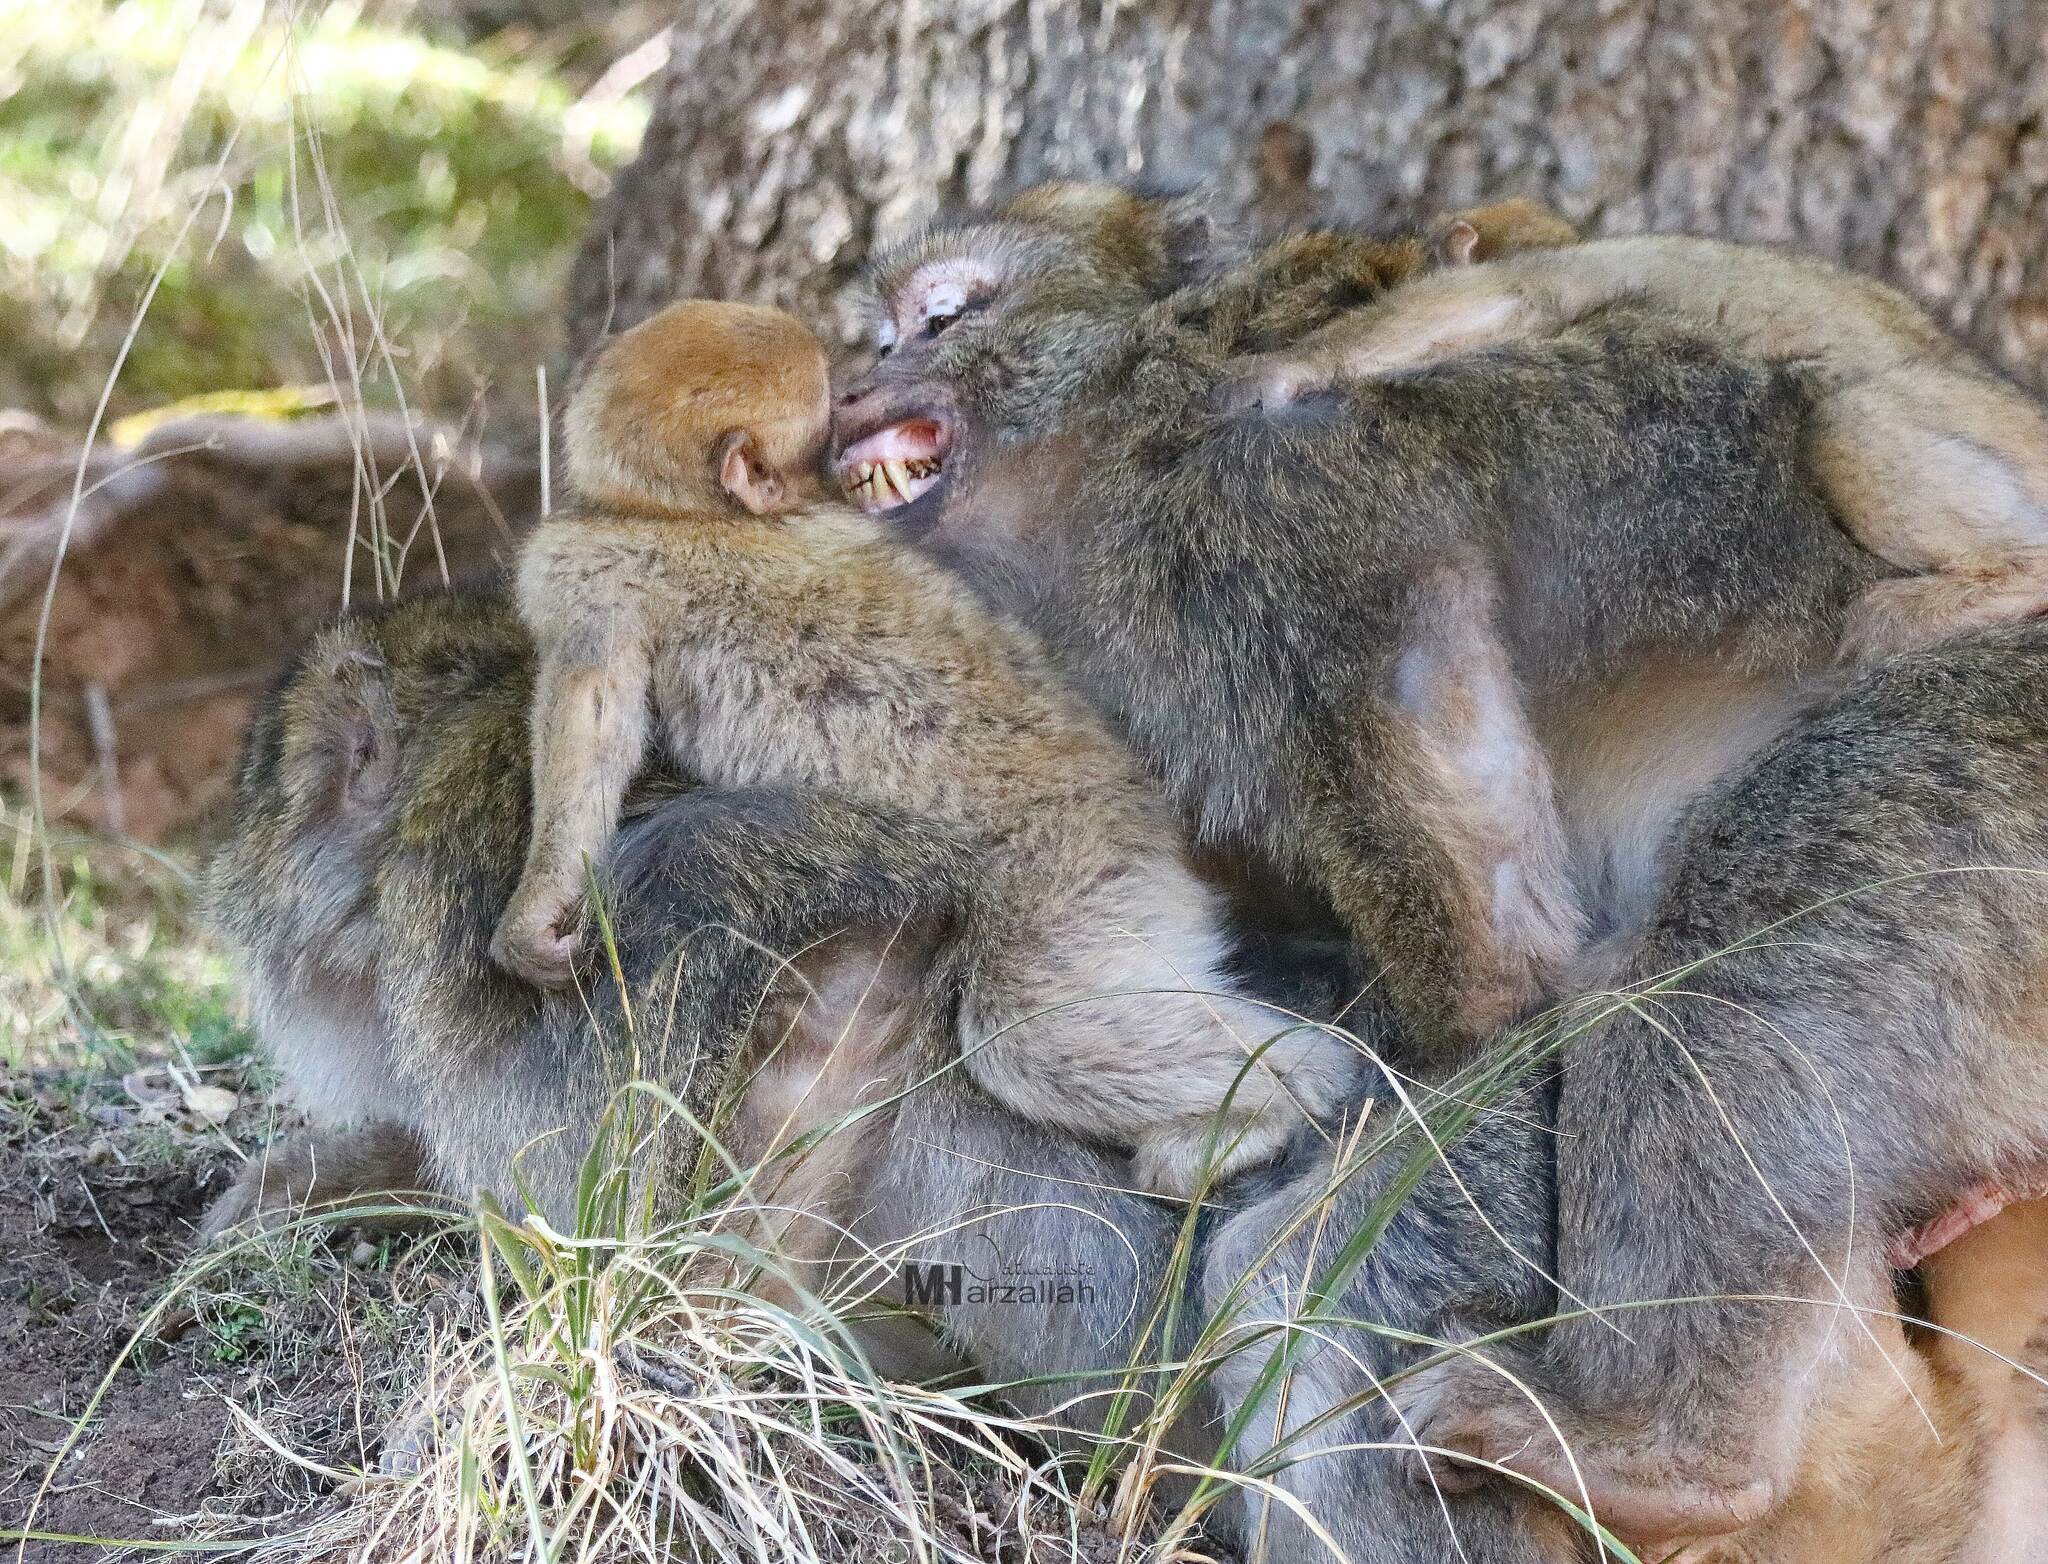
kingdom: Animalia
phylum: Chordata
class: Mammalia
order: Primates
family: Cercopithecidae
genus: Macaca
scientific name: Macaca sylvanus
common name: Barbary macaque
